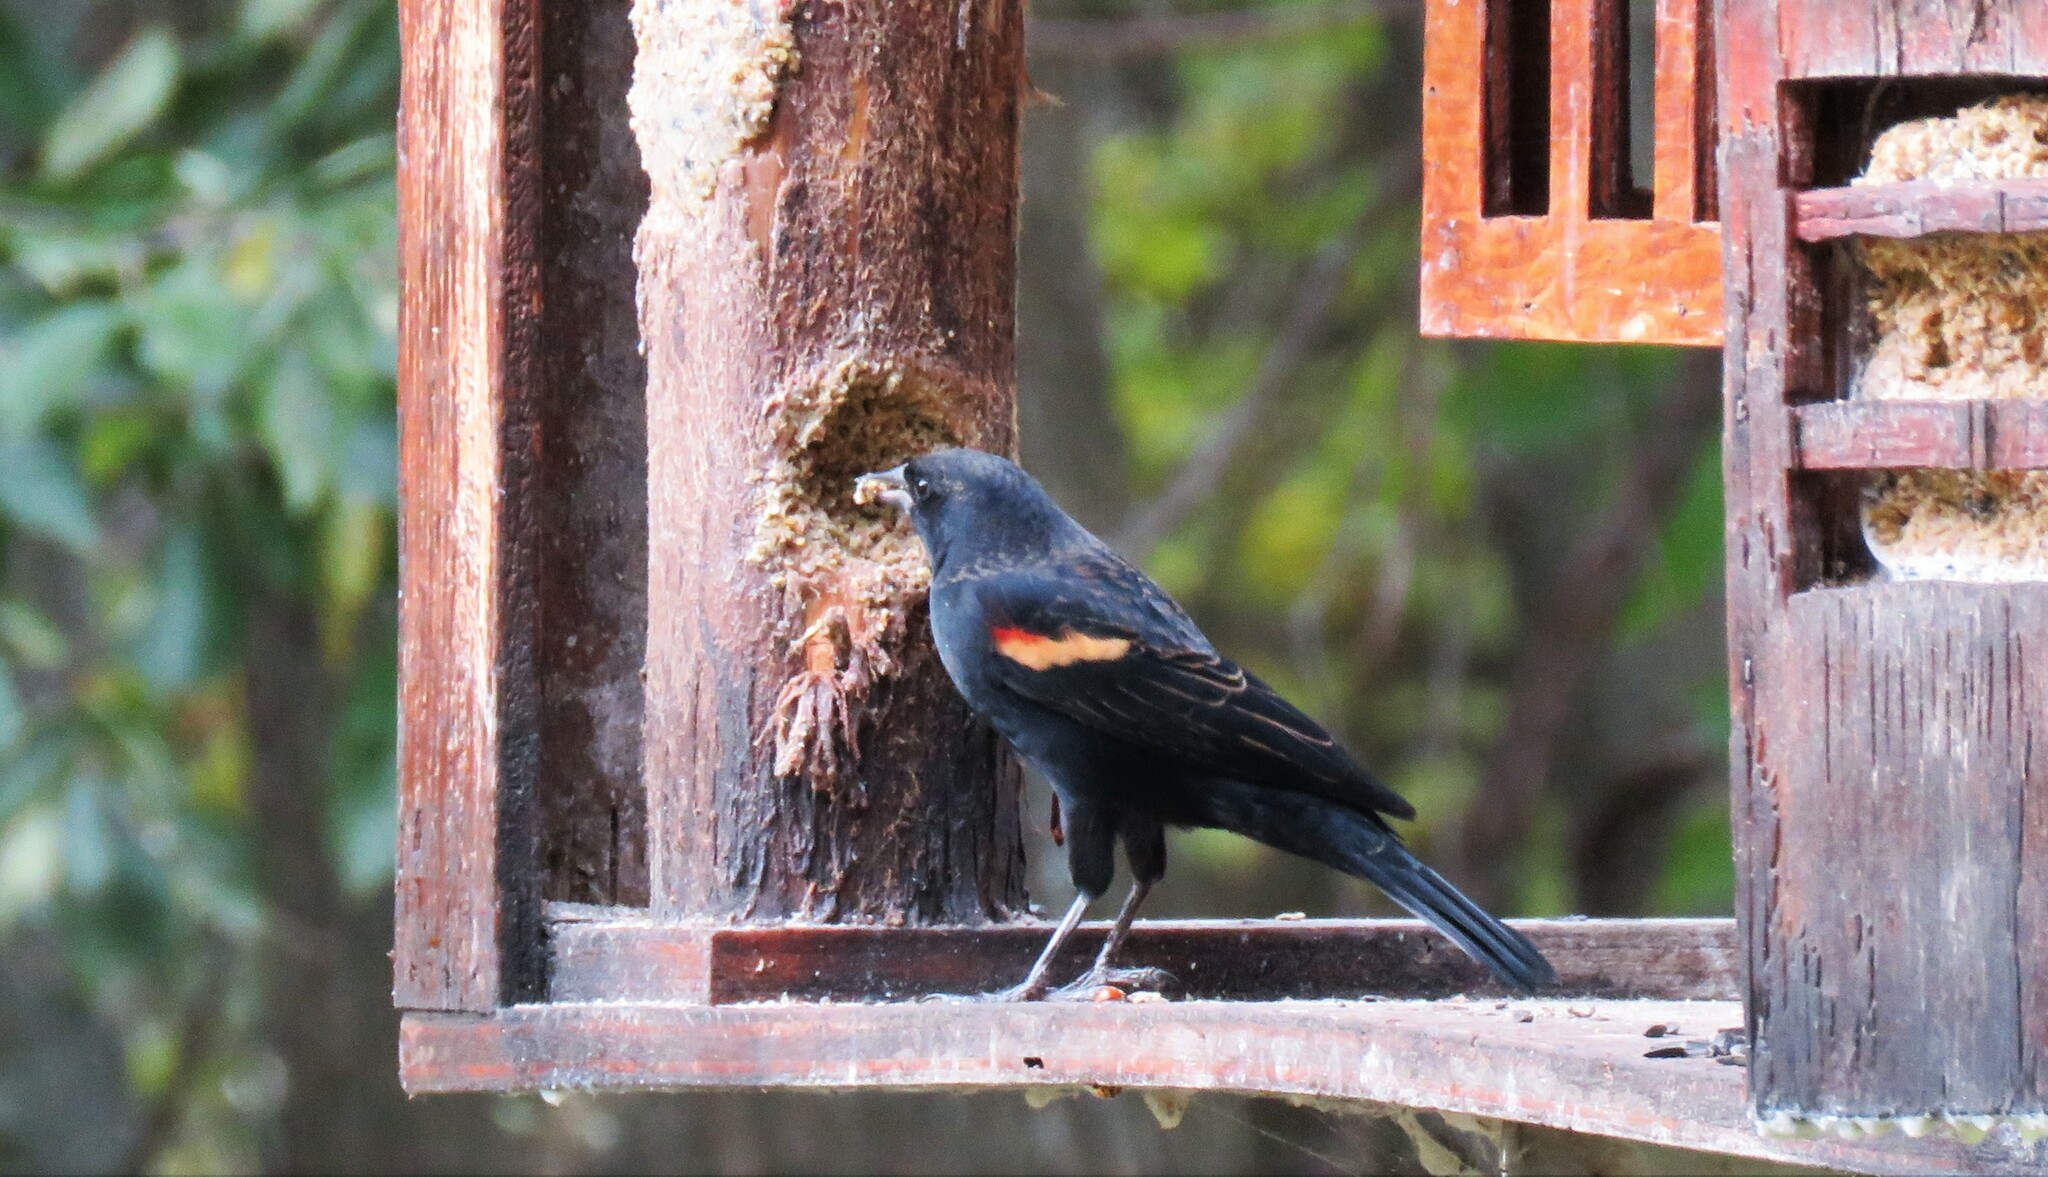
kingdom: Animalia
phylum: Chordata
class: Aves
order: Passeriformes
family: Icteridae
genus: Agelaius
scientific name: Agelaius phoeniceus
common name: Red-winged blackbird
